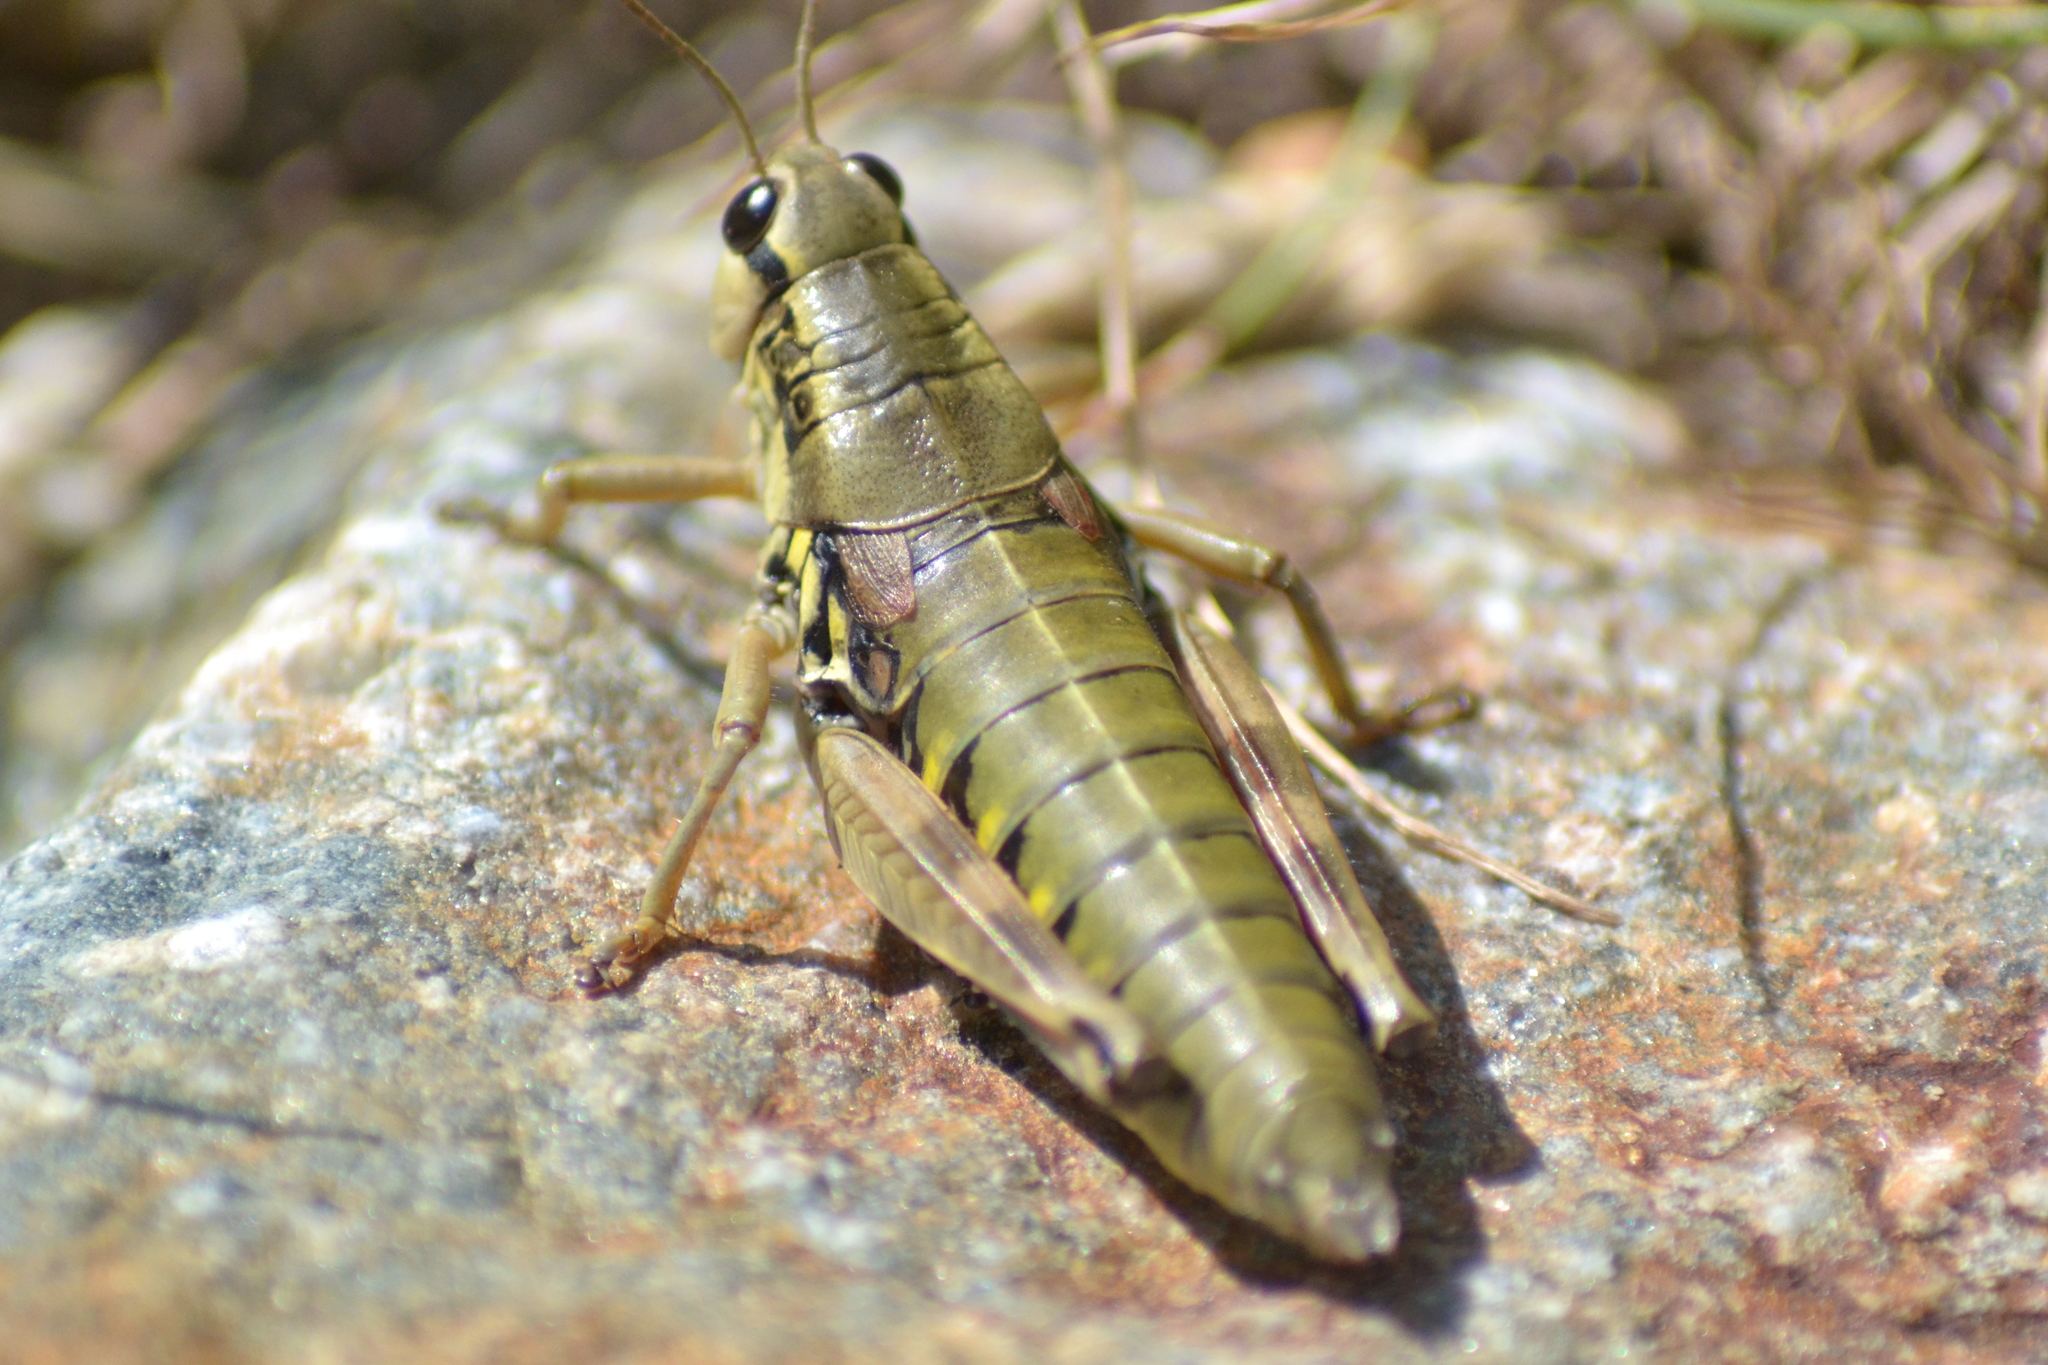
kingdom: Animalia
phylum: Arthropoda
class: Insecta
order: Orthoptera
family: Acrididae
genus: Podisma
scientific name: Podisma dechambrei
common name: Alpes-maritimes mountain grasshopper
